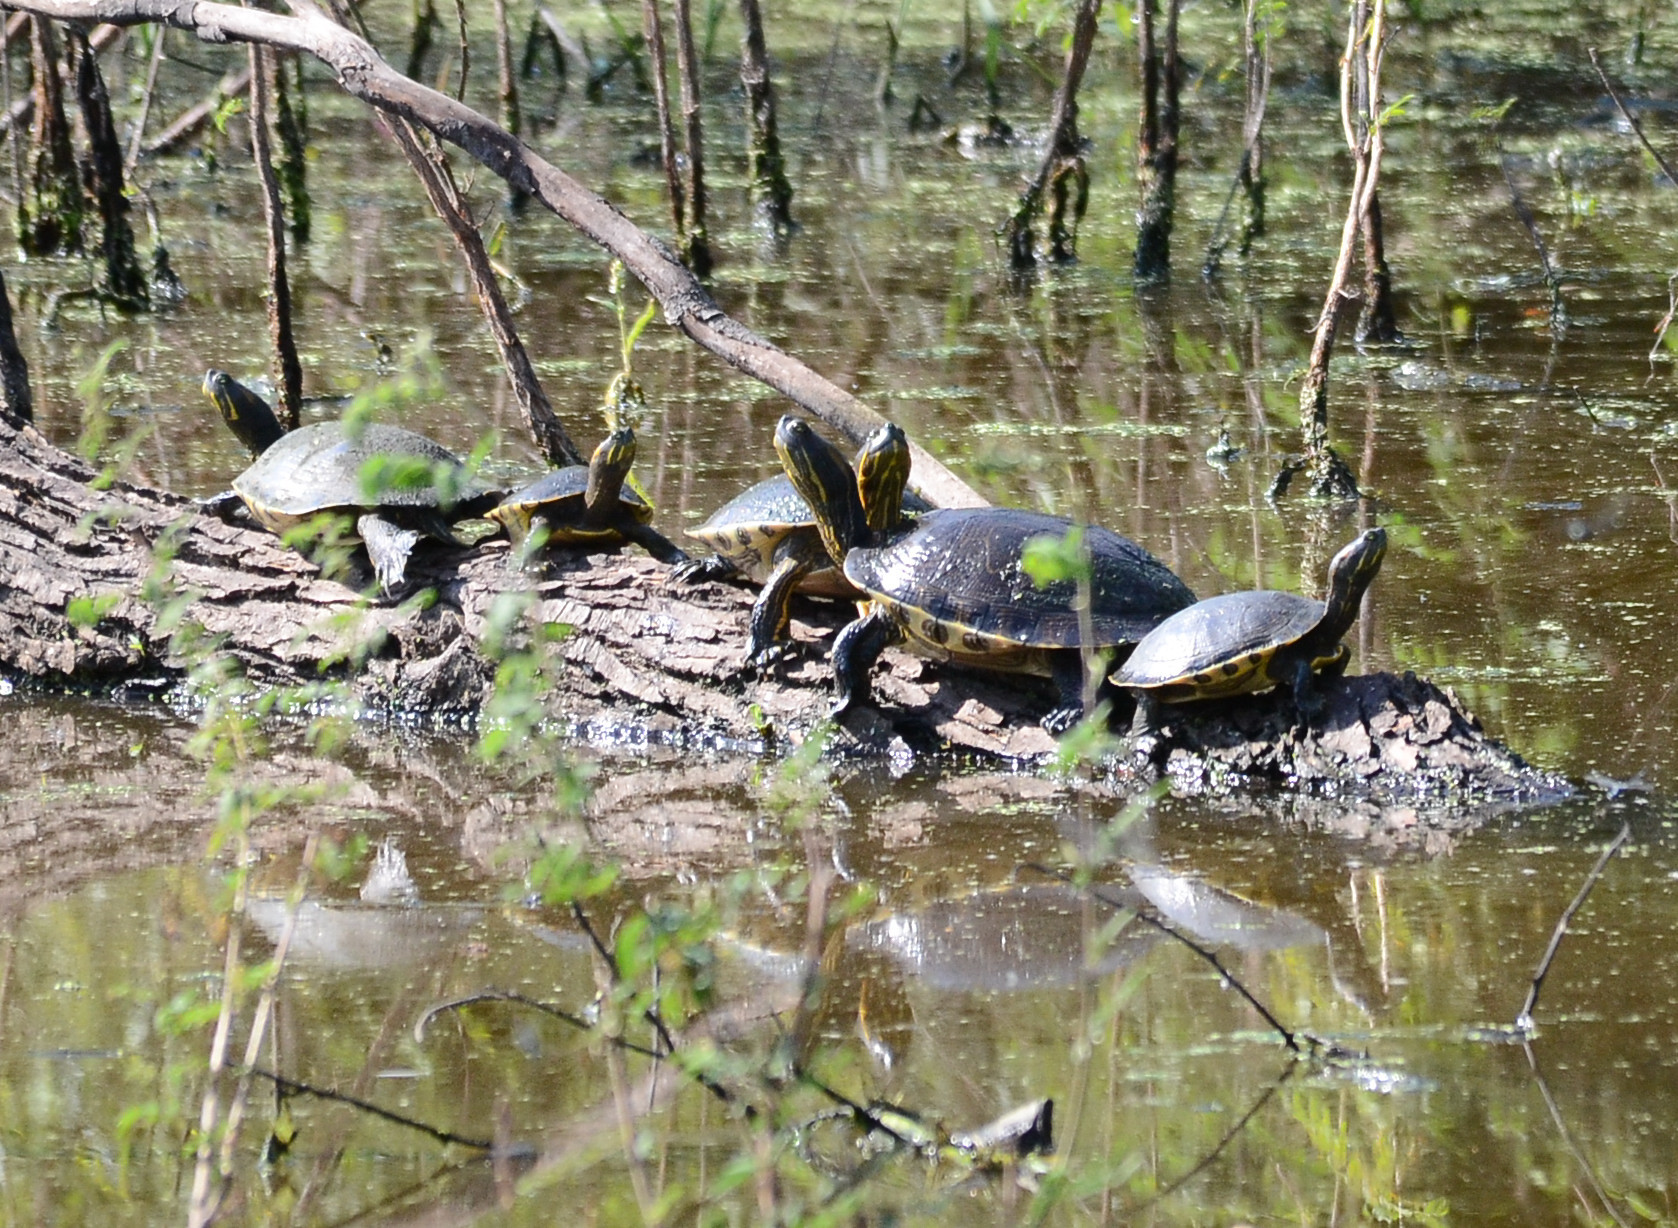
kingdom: Animalia
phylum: Chordata
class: Testudines
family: Emydidae
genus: Trachemys
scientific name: Trachemys ornata
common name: Ornate slider
